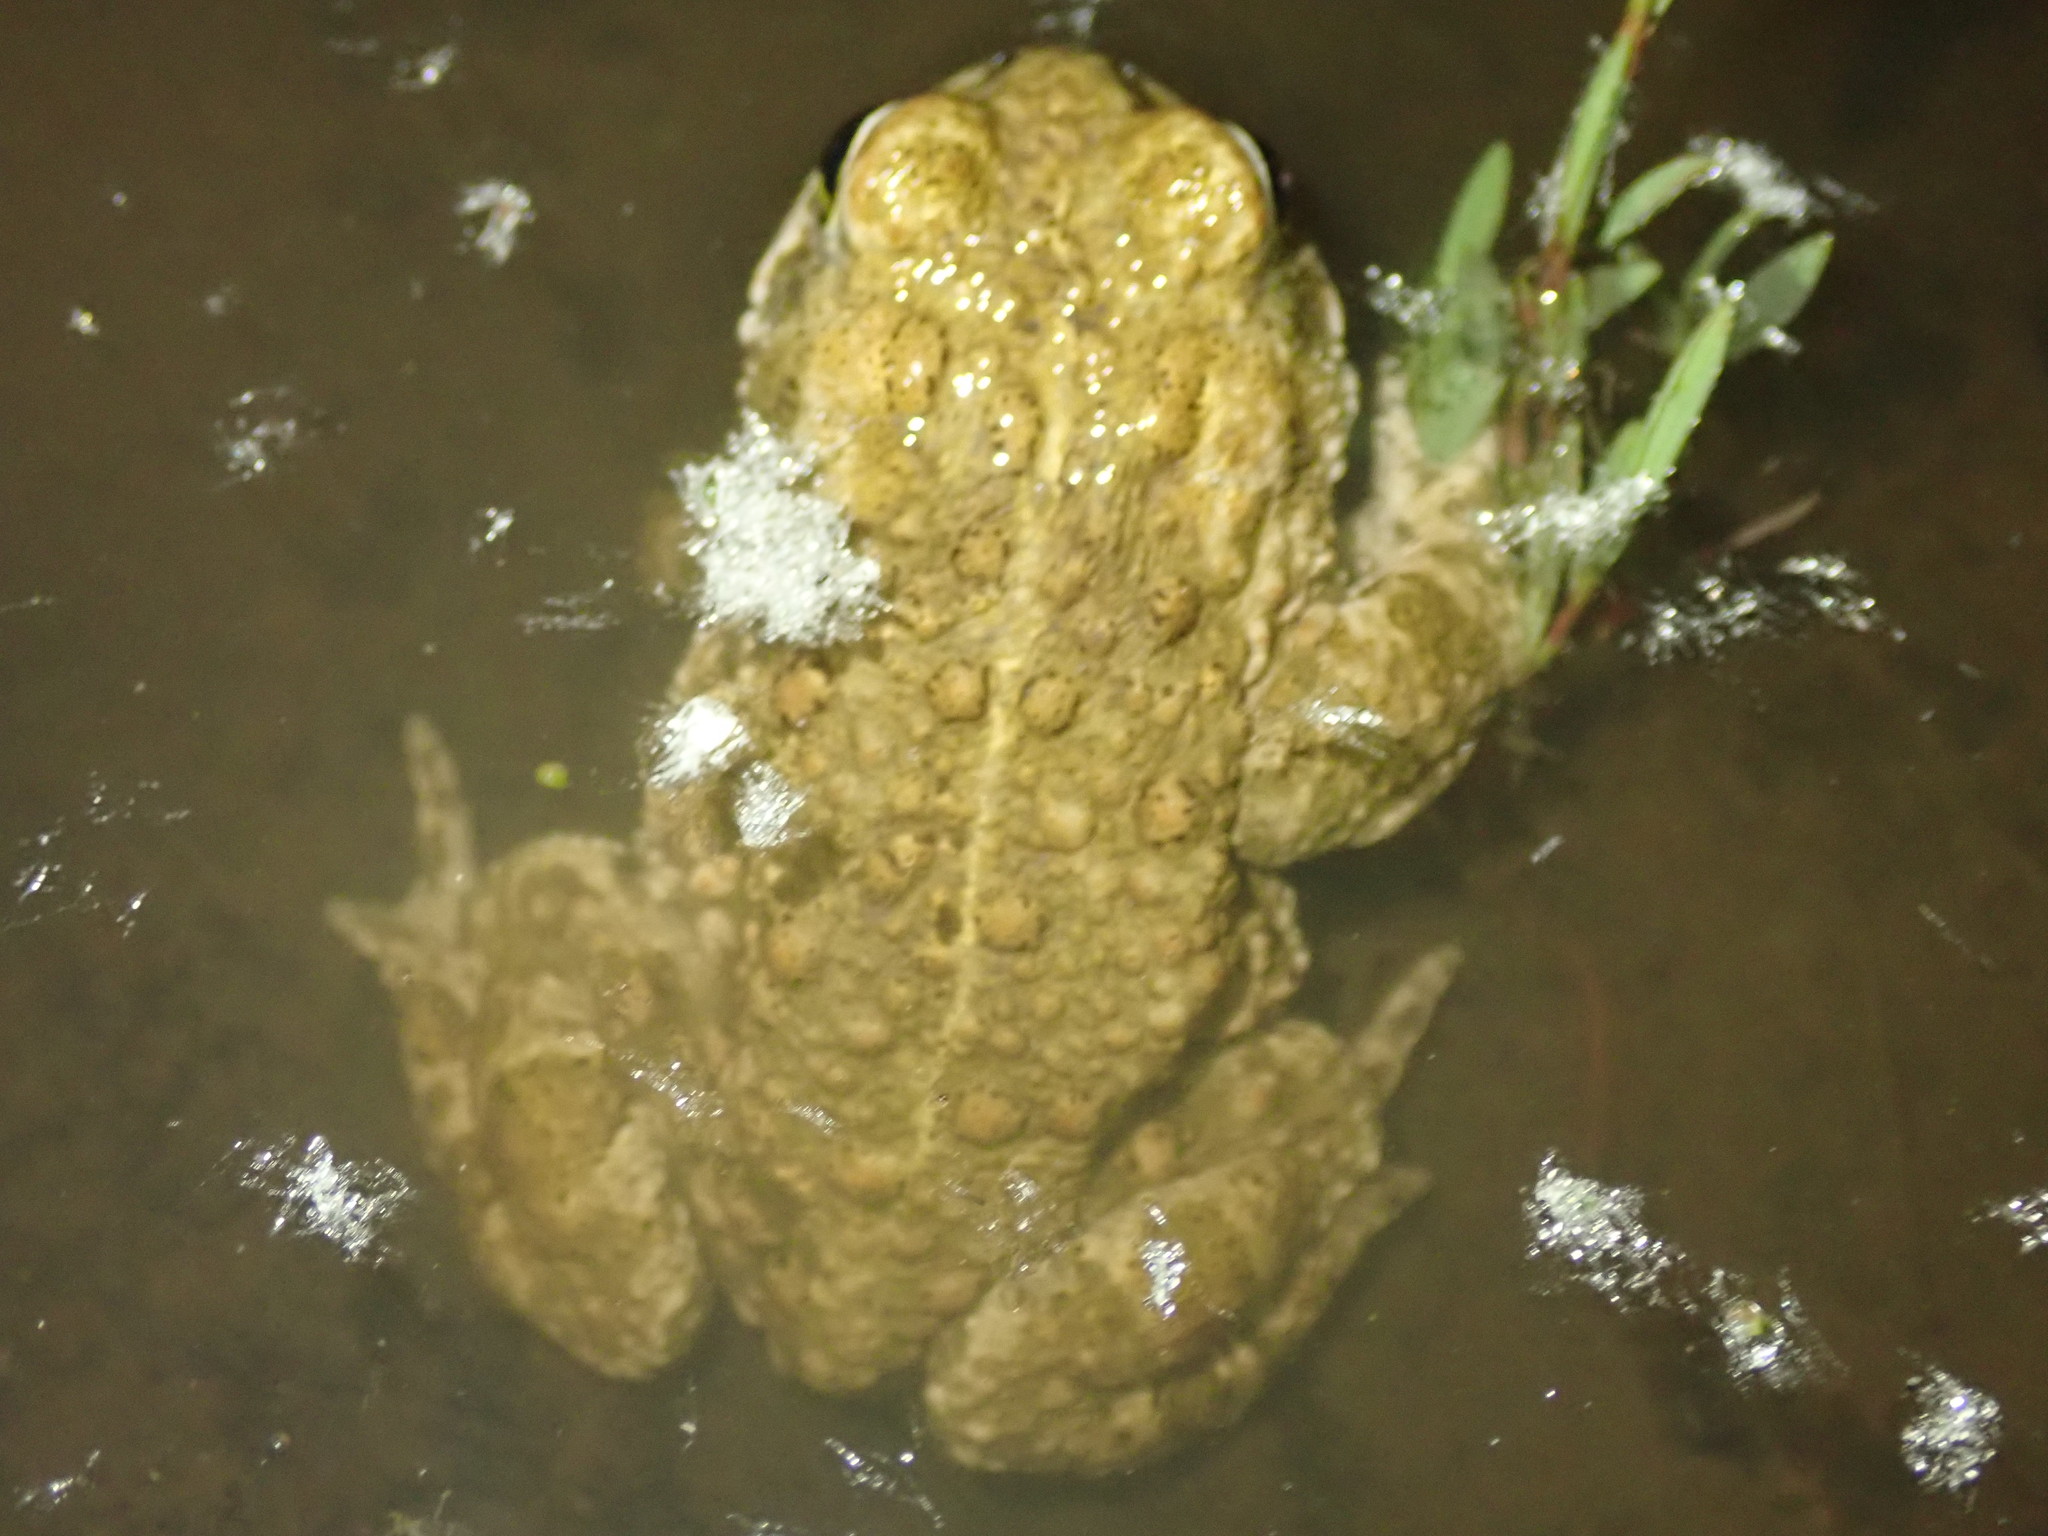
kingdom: Animalia
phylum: Chordata
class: Amphibia
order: Anura
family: Bufonidae
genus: Epidalea
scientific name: Epidalea calamita
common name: Natterjack toad
